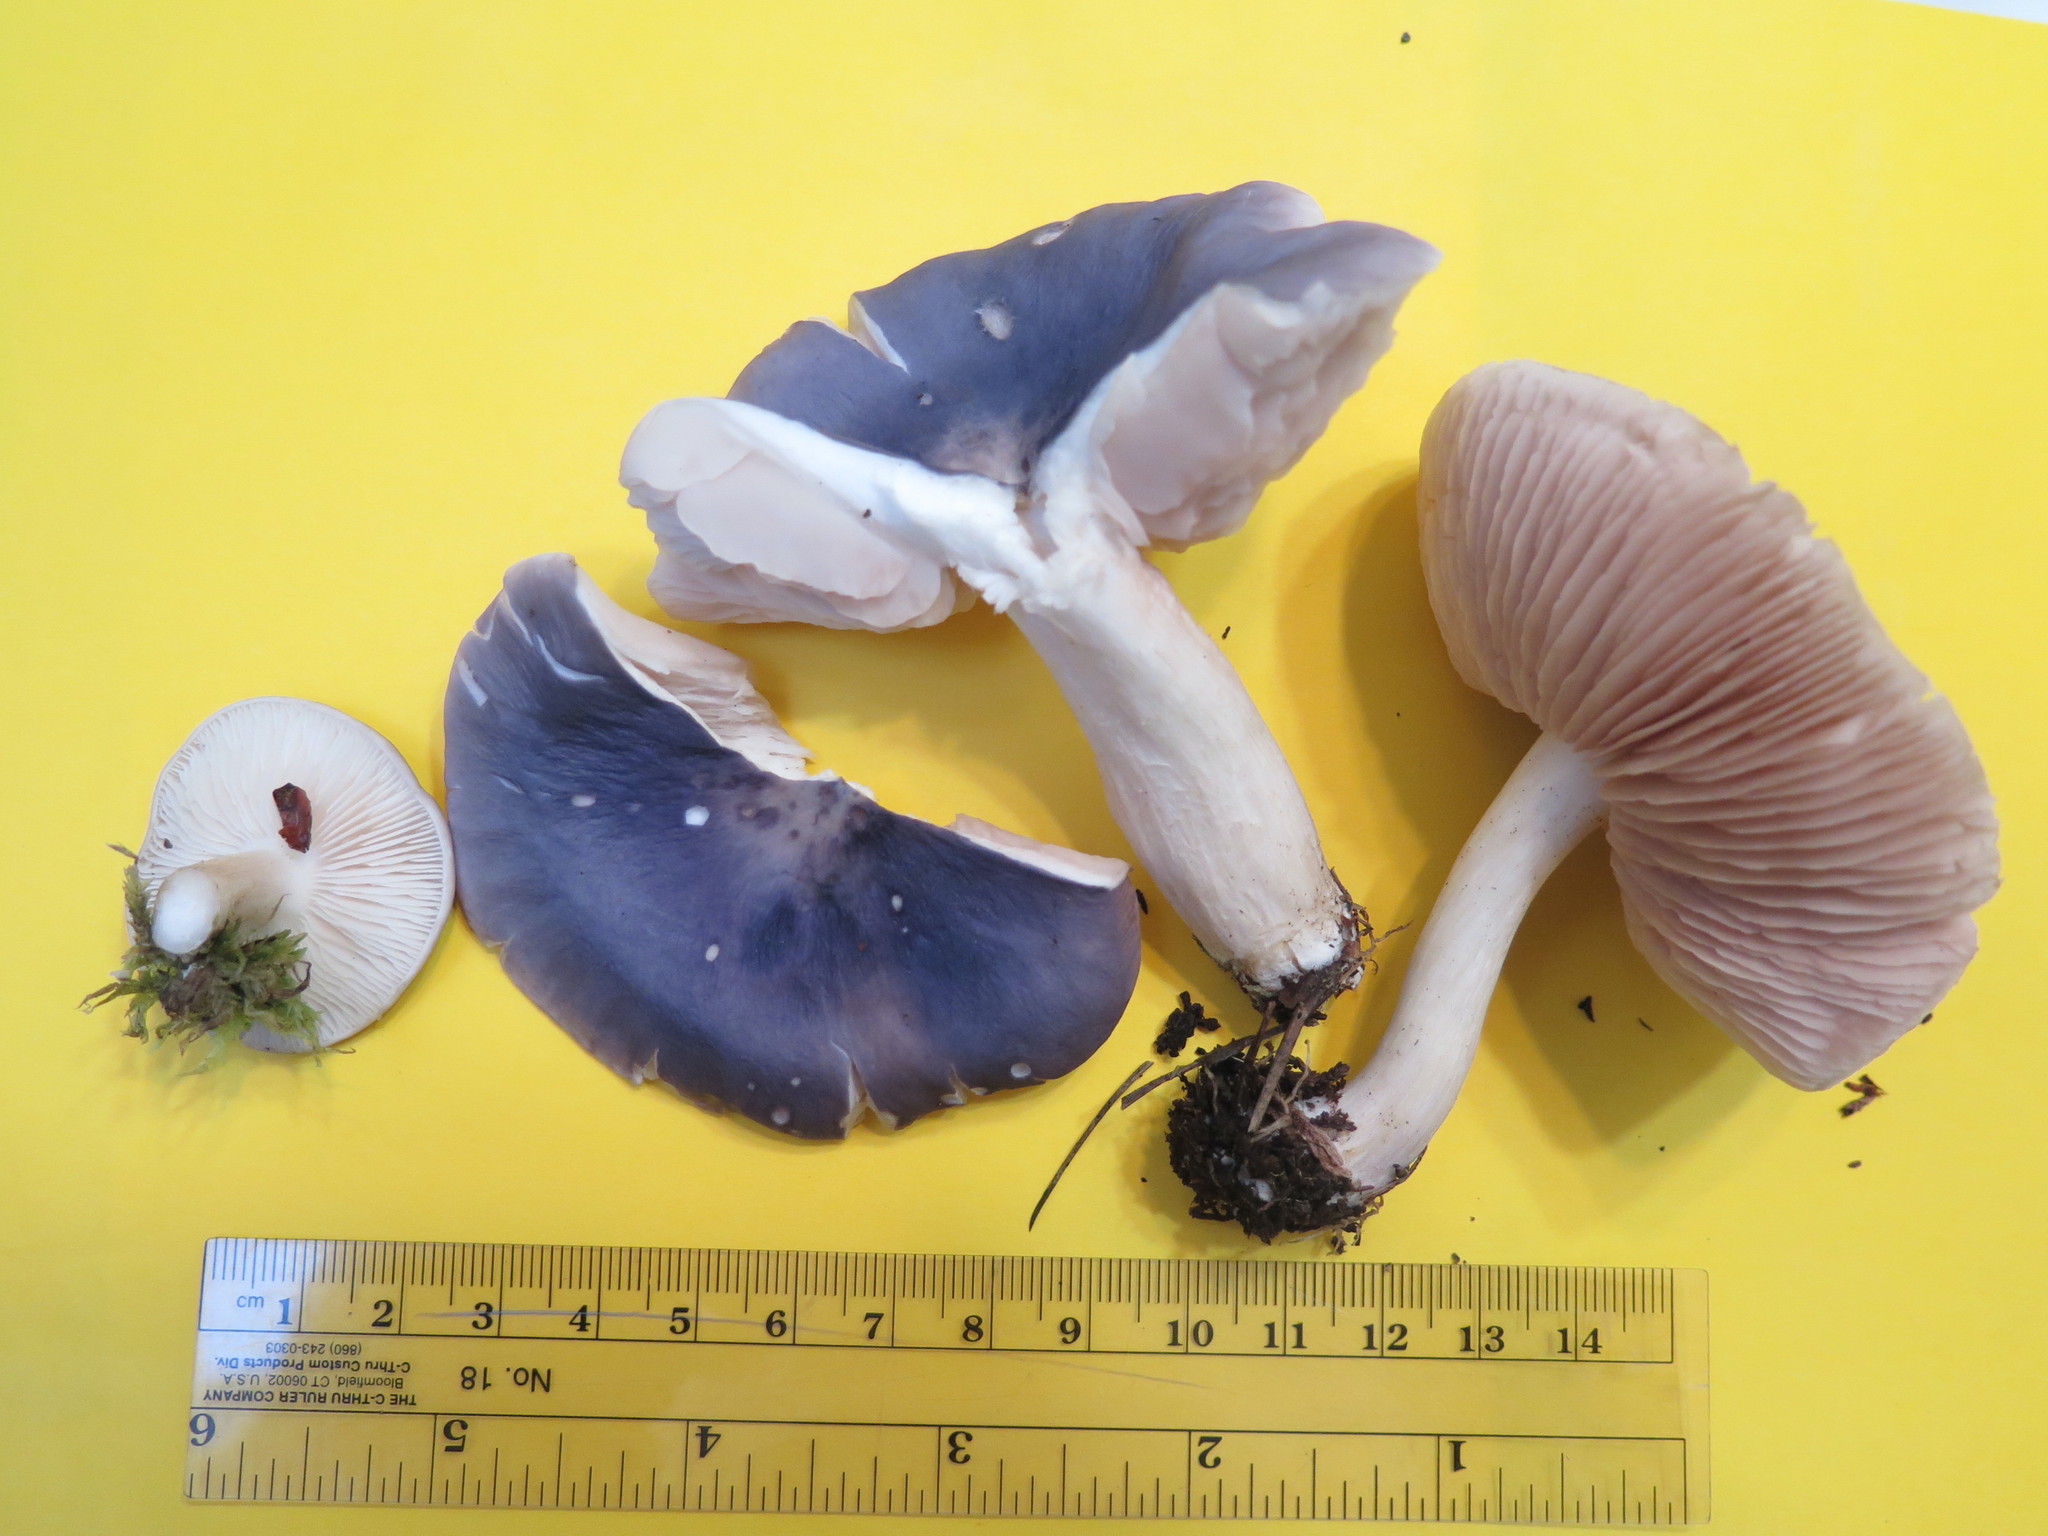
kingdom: Fungi
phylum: Basidiomycota
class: Agaricomycetes
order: Agaricales
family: Entolomataceae
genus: Entoloma
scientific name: Entoloma indigoferum
